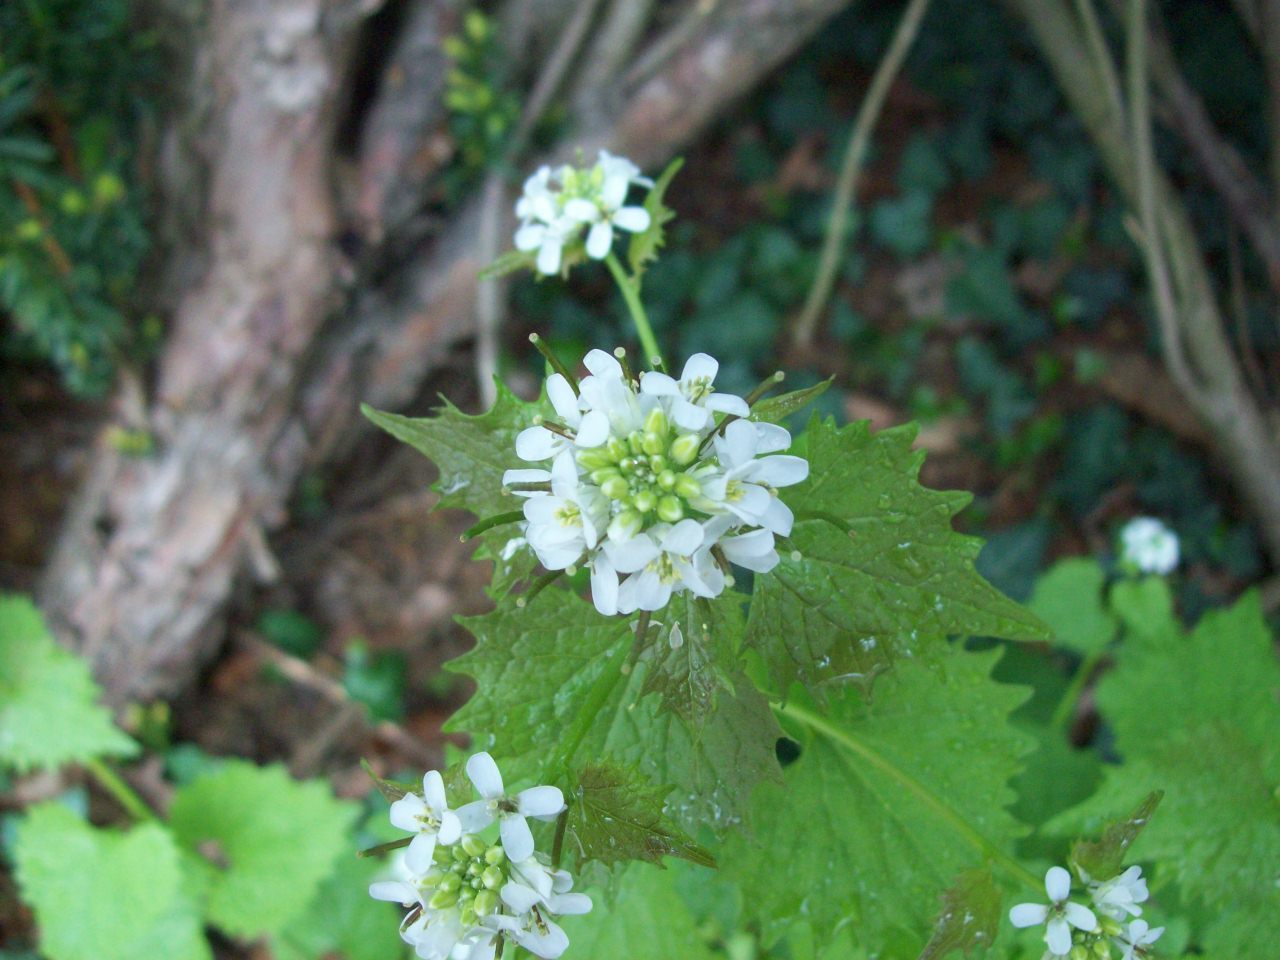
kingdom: Plantae
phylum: Tracheophyta
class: Magnoliopsida
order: Brassicales
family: Brassicaceae
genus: Alliaria
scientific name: Alliaria petiolata
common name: Garlic mustard
